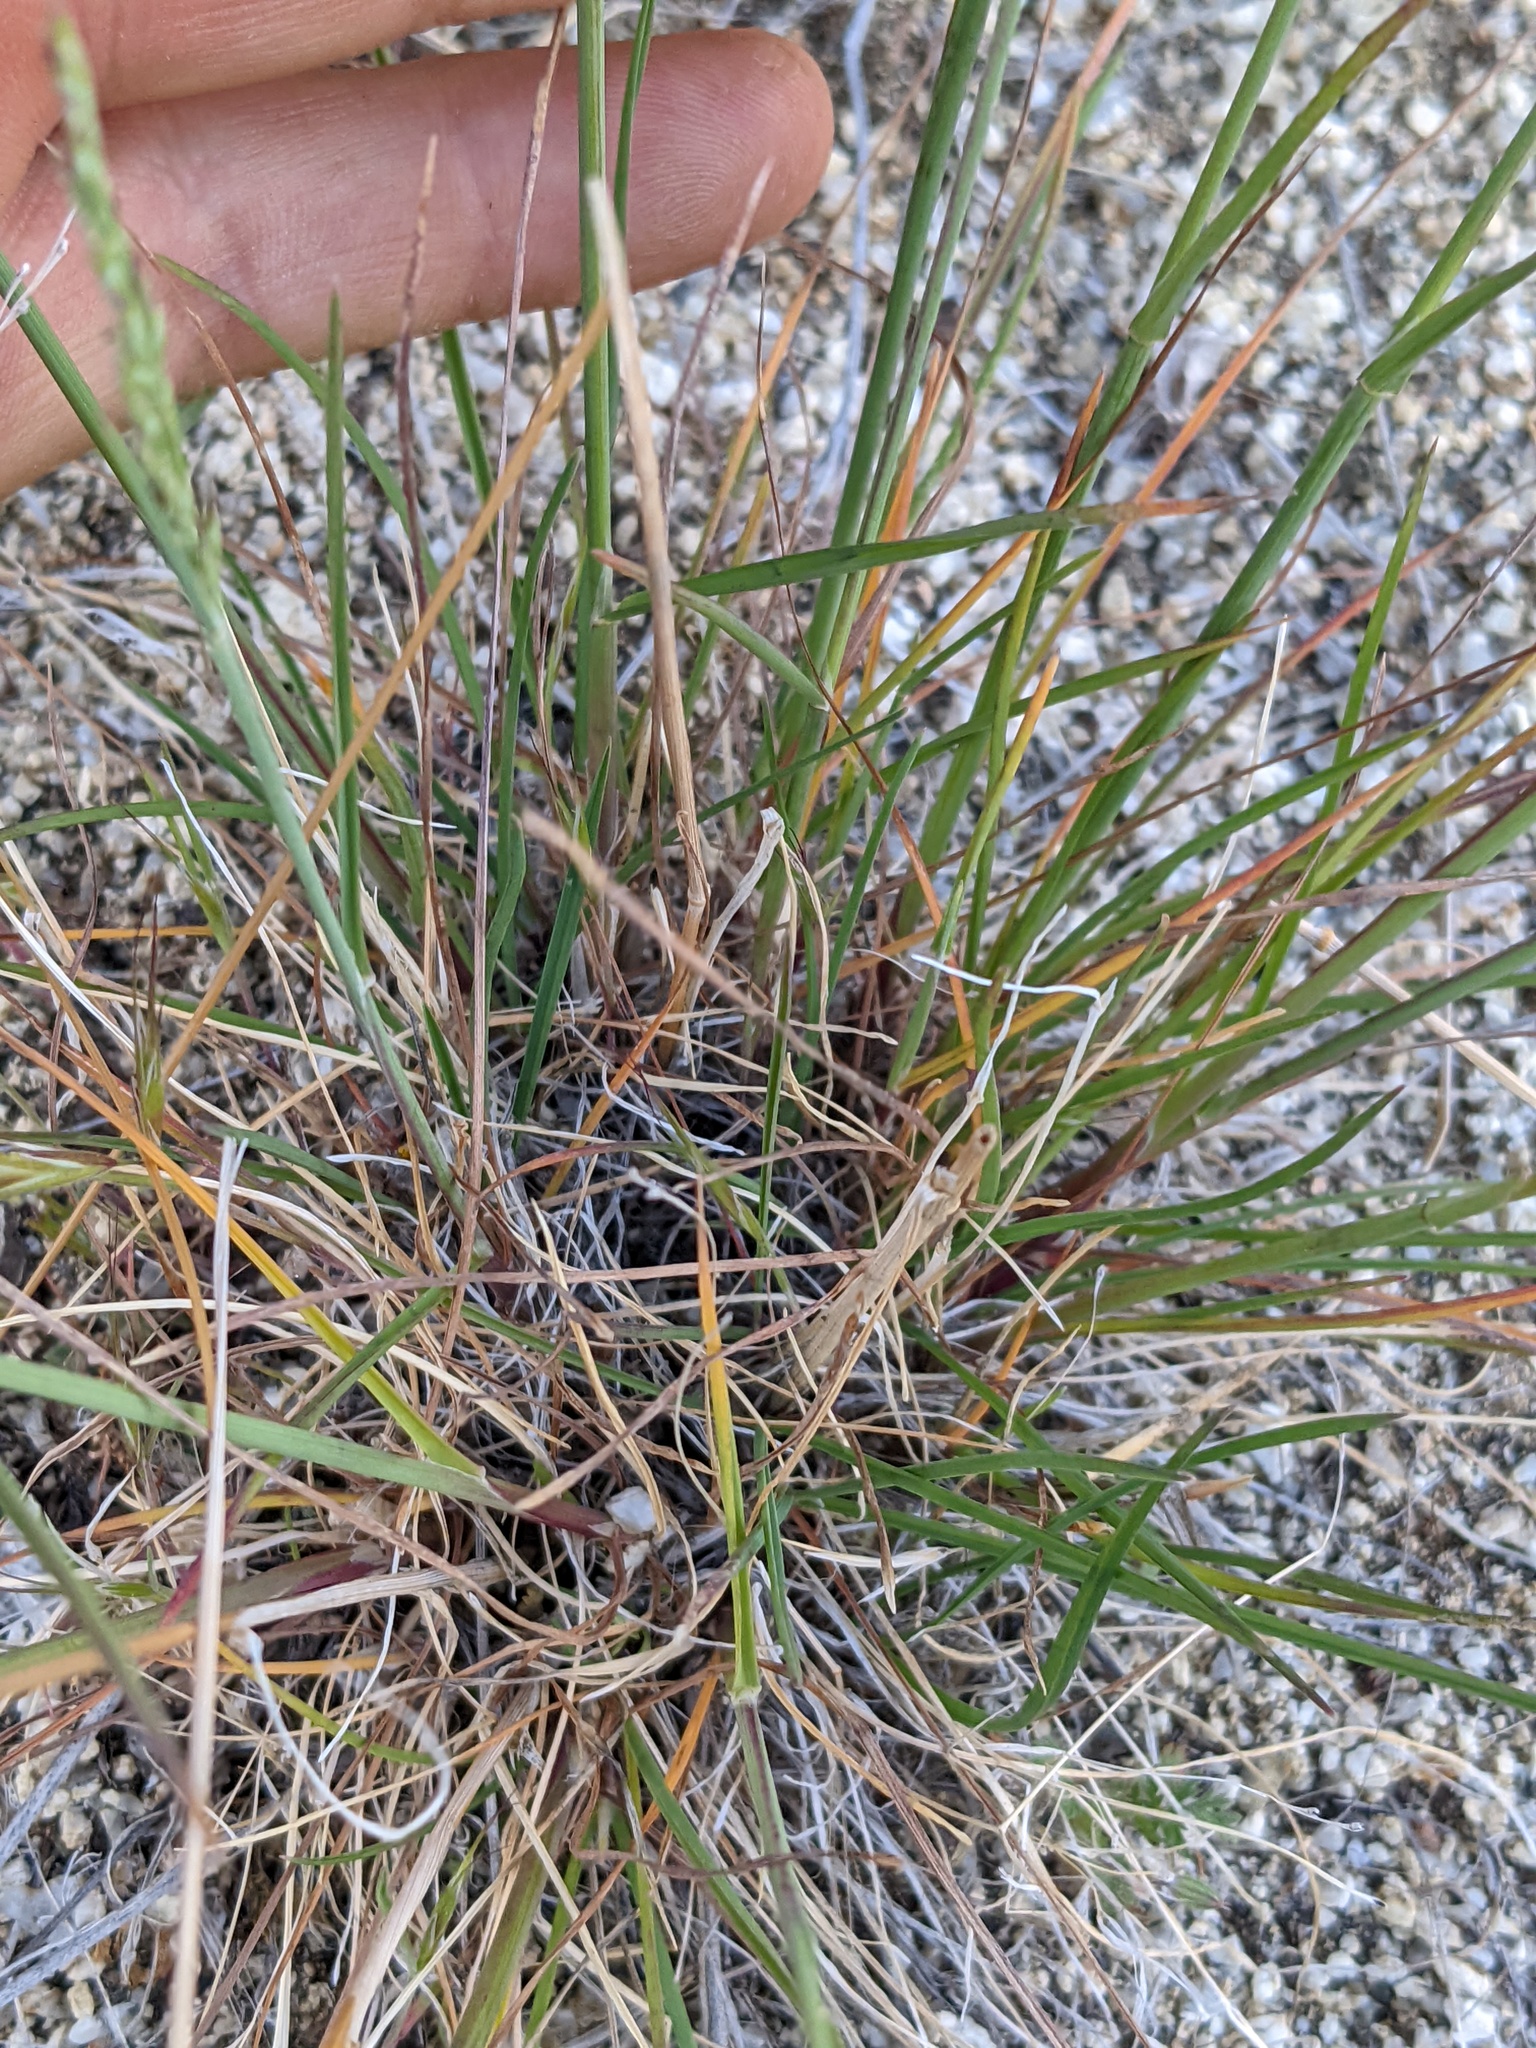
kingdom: Plantae
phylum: Tracheophyta
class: Liliopsida
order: Poales
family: Poaceae
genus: Melica
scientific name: Melica frutescens
